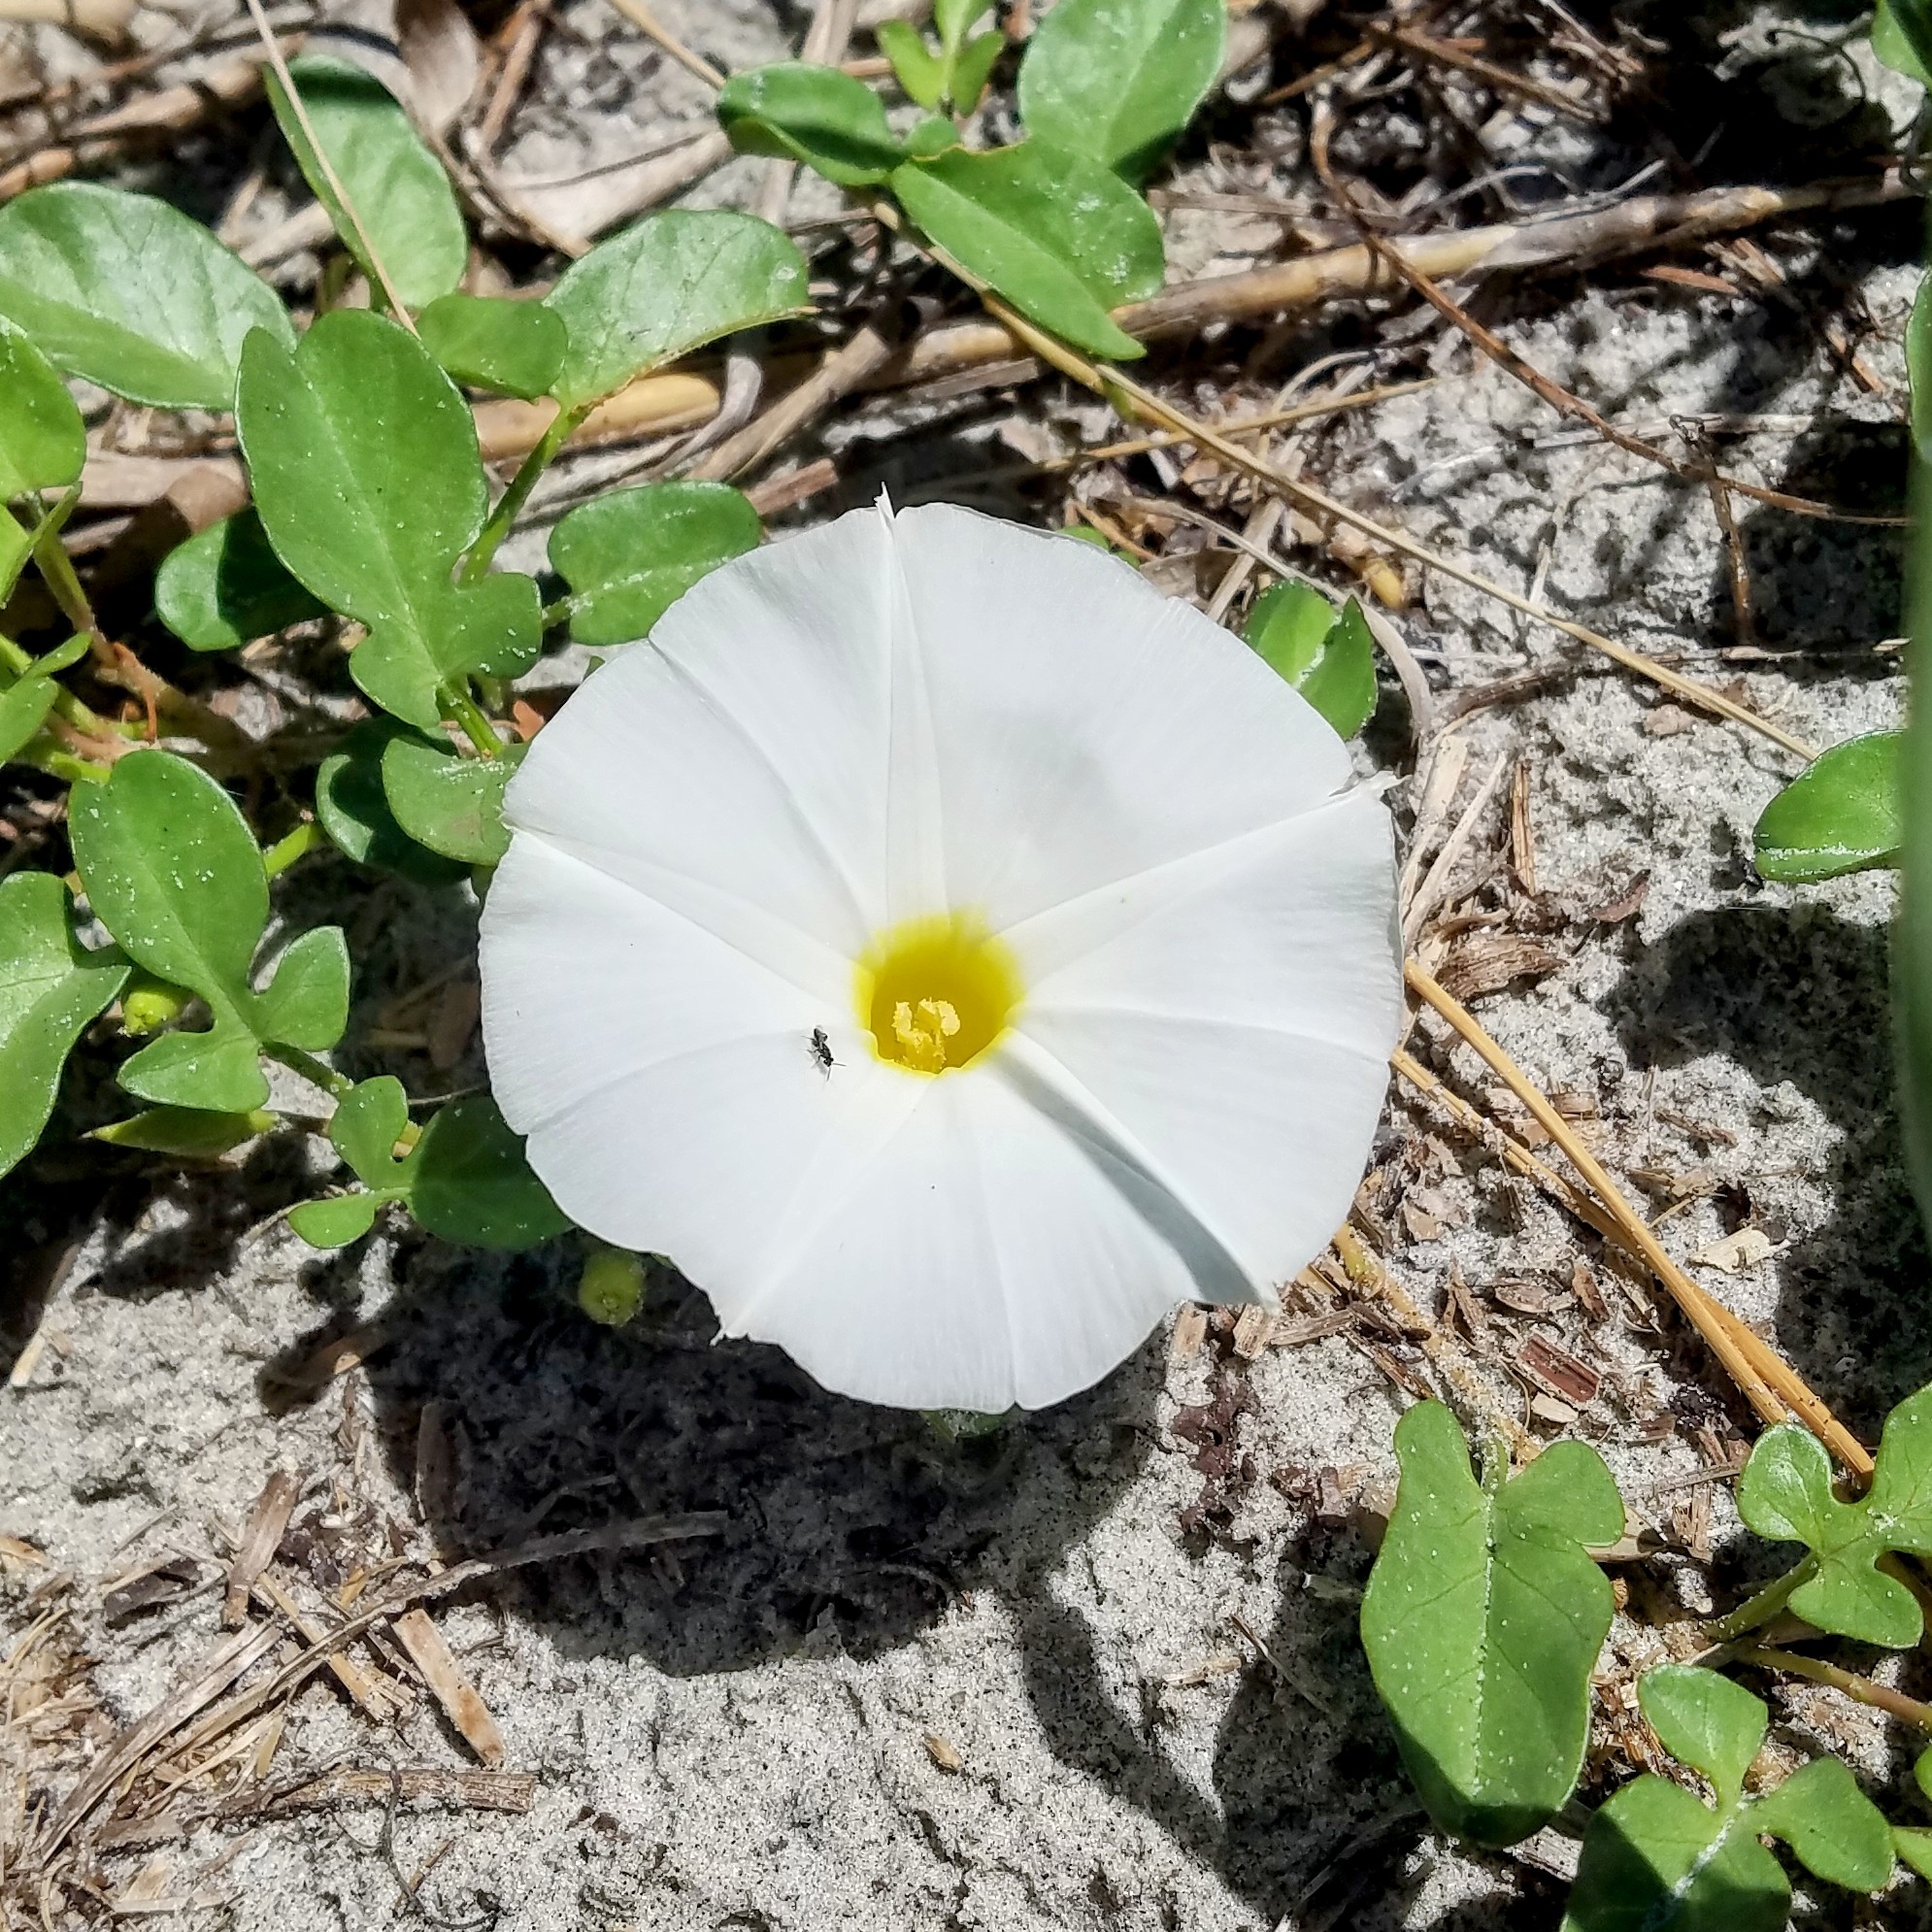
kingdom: Plantae
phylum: Tracheophyta
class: Magnoliopsida
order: Solanales
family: Convolvulaceae
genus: Ipomoea
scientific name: Ipomoea imperati
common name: Fiddle-leaf morning-glory
